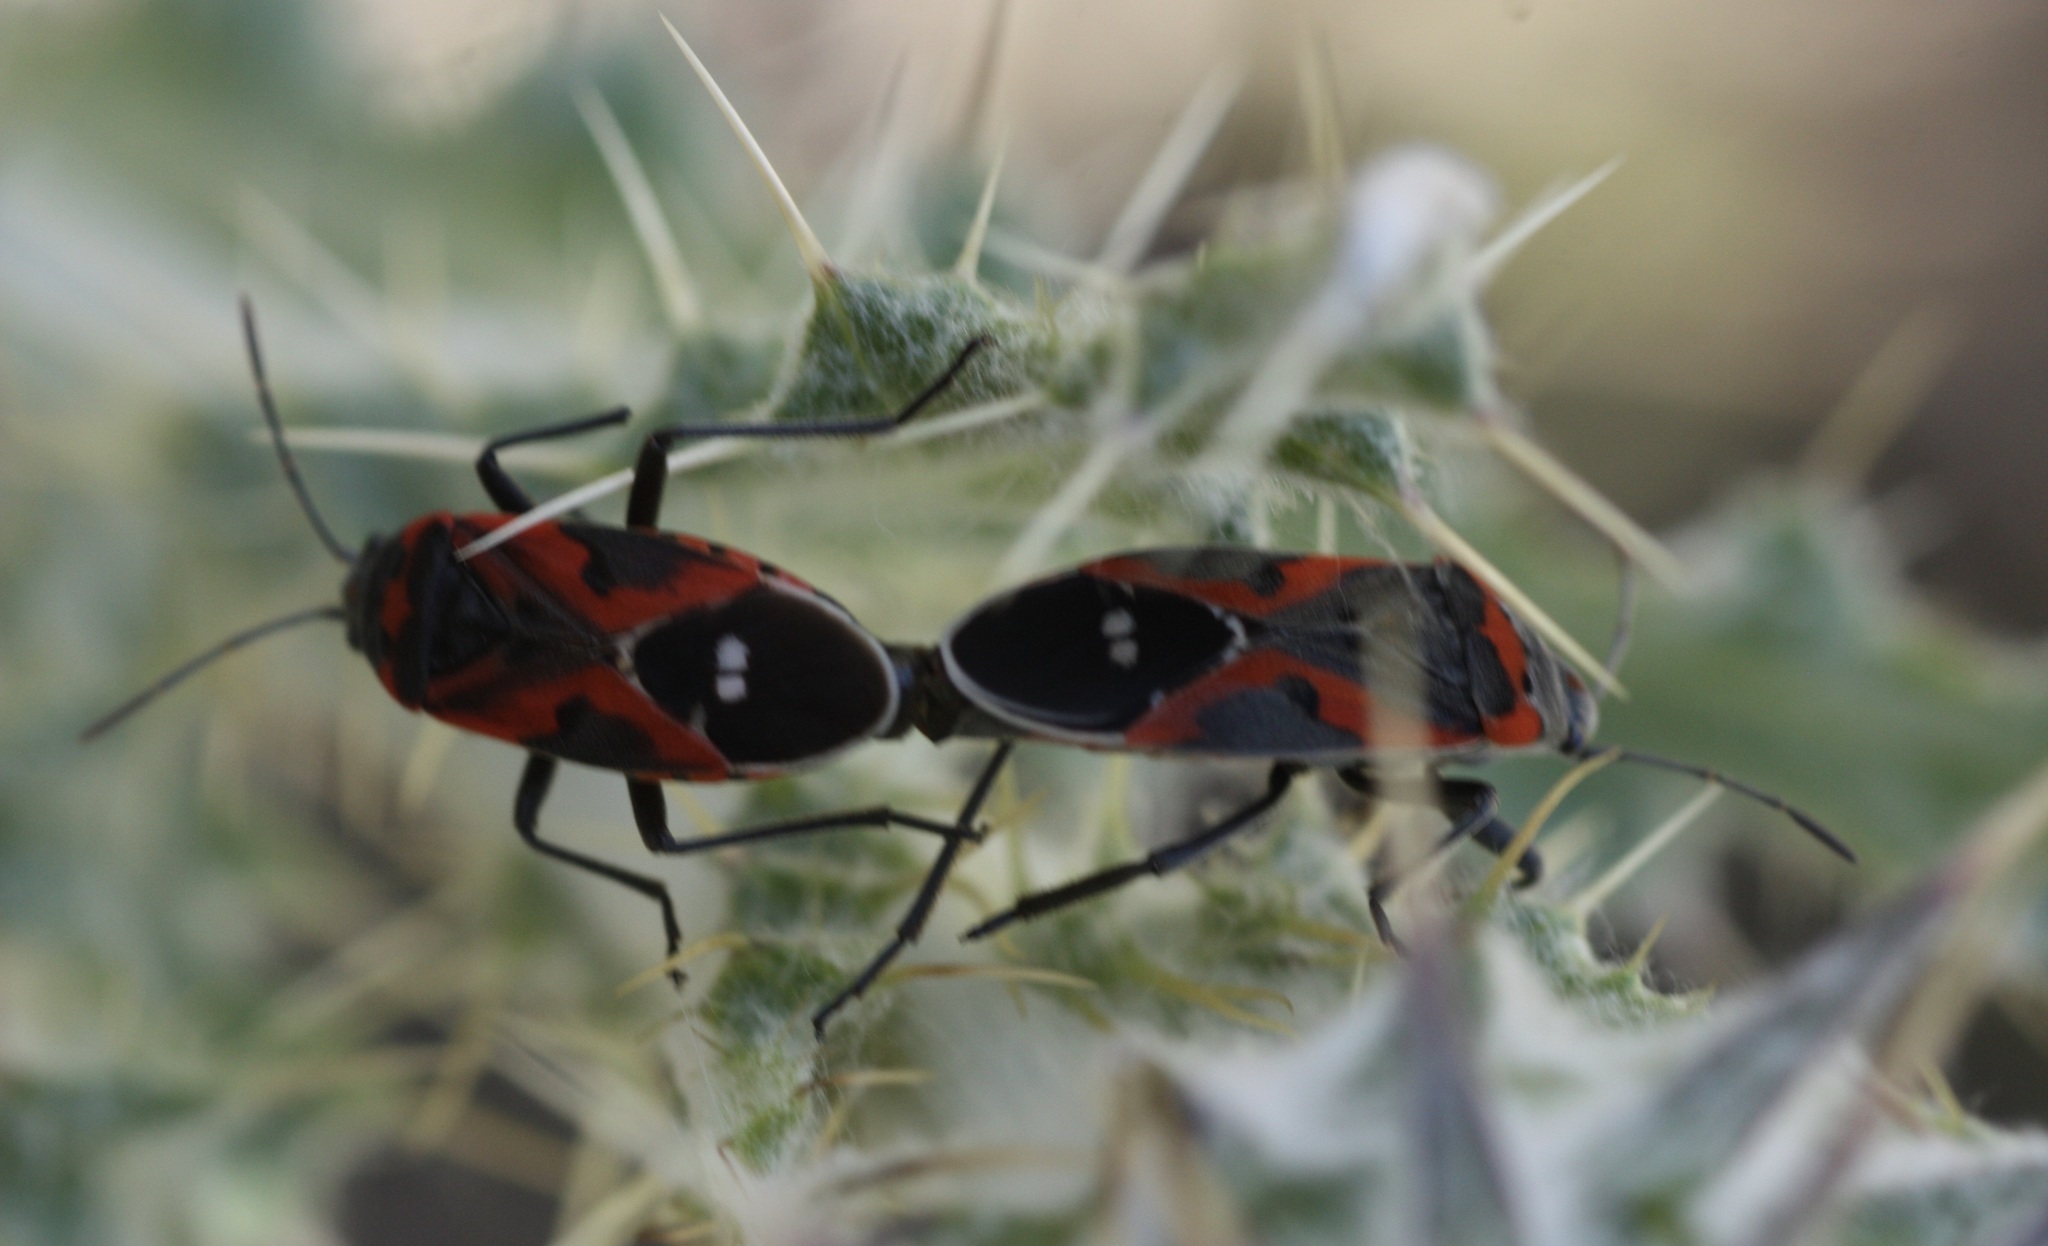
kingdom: Animalia
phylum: Arthropoda
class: Insecta
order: Hemiptera
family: Lygaeidae
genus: Lygaeus
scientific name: Lygaeus
